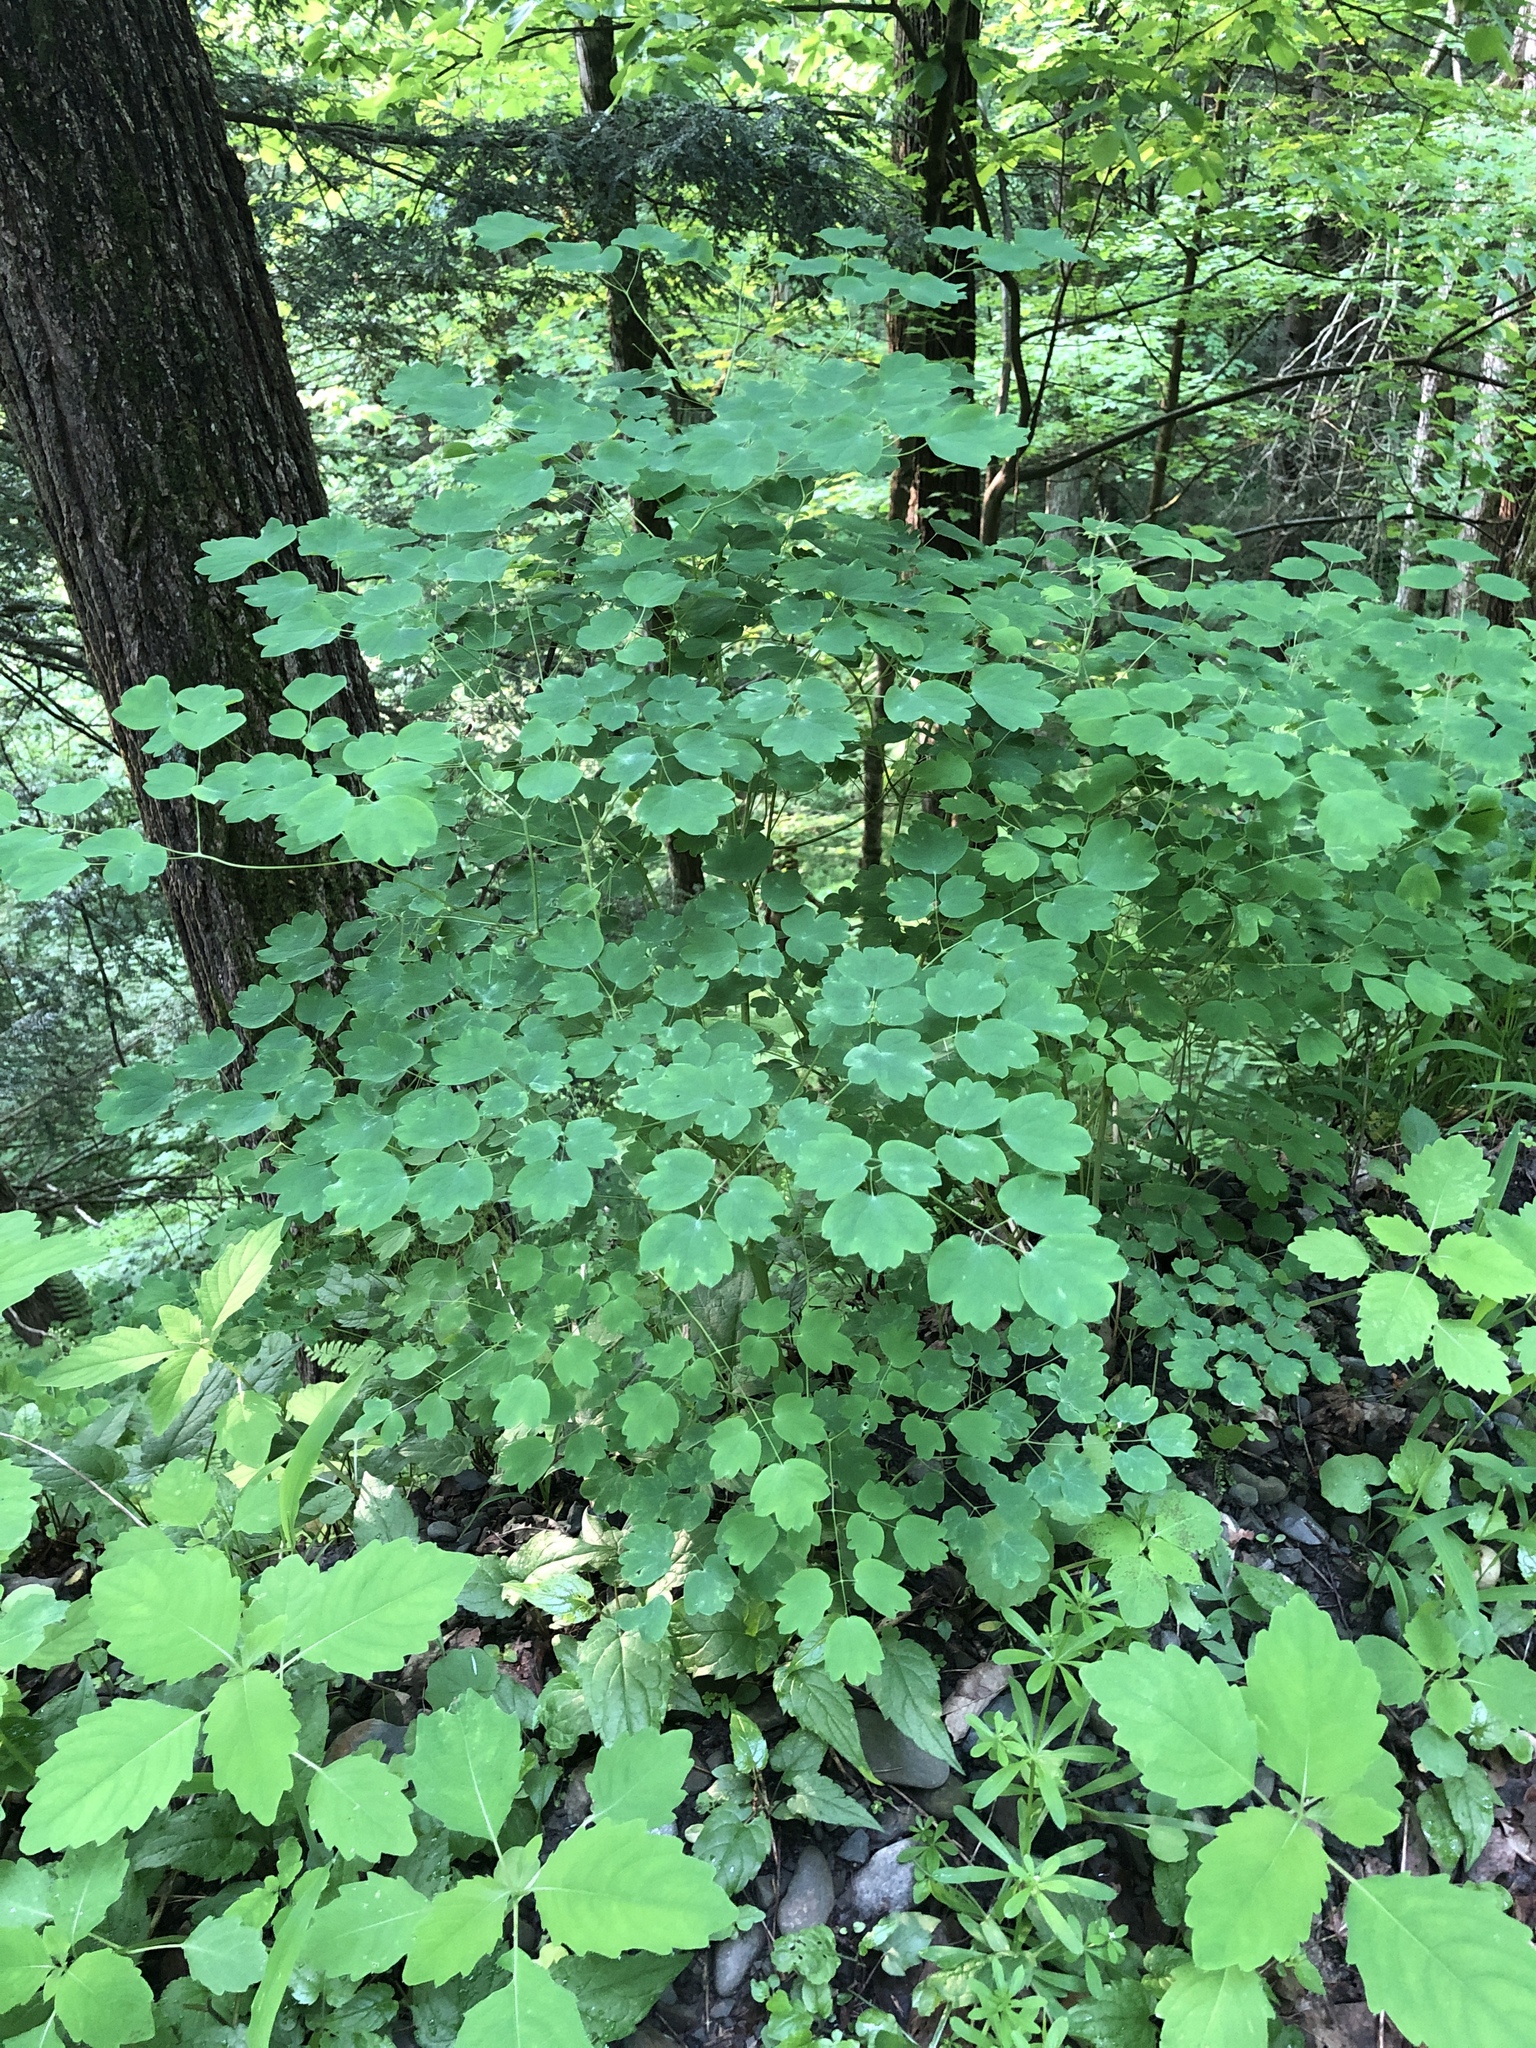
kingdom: Plantae
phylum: Tracheophyta
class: Magnoliopsida
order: Ranunculales
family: Ranunculaceae
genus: Thalictrum
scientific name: Thalictrum dioicum
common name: Early meadow-rue
